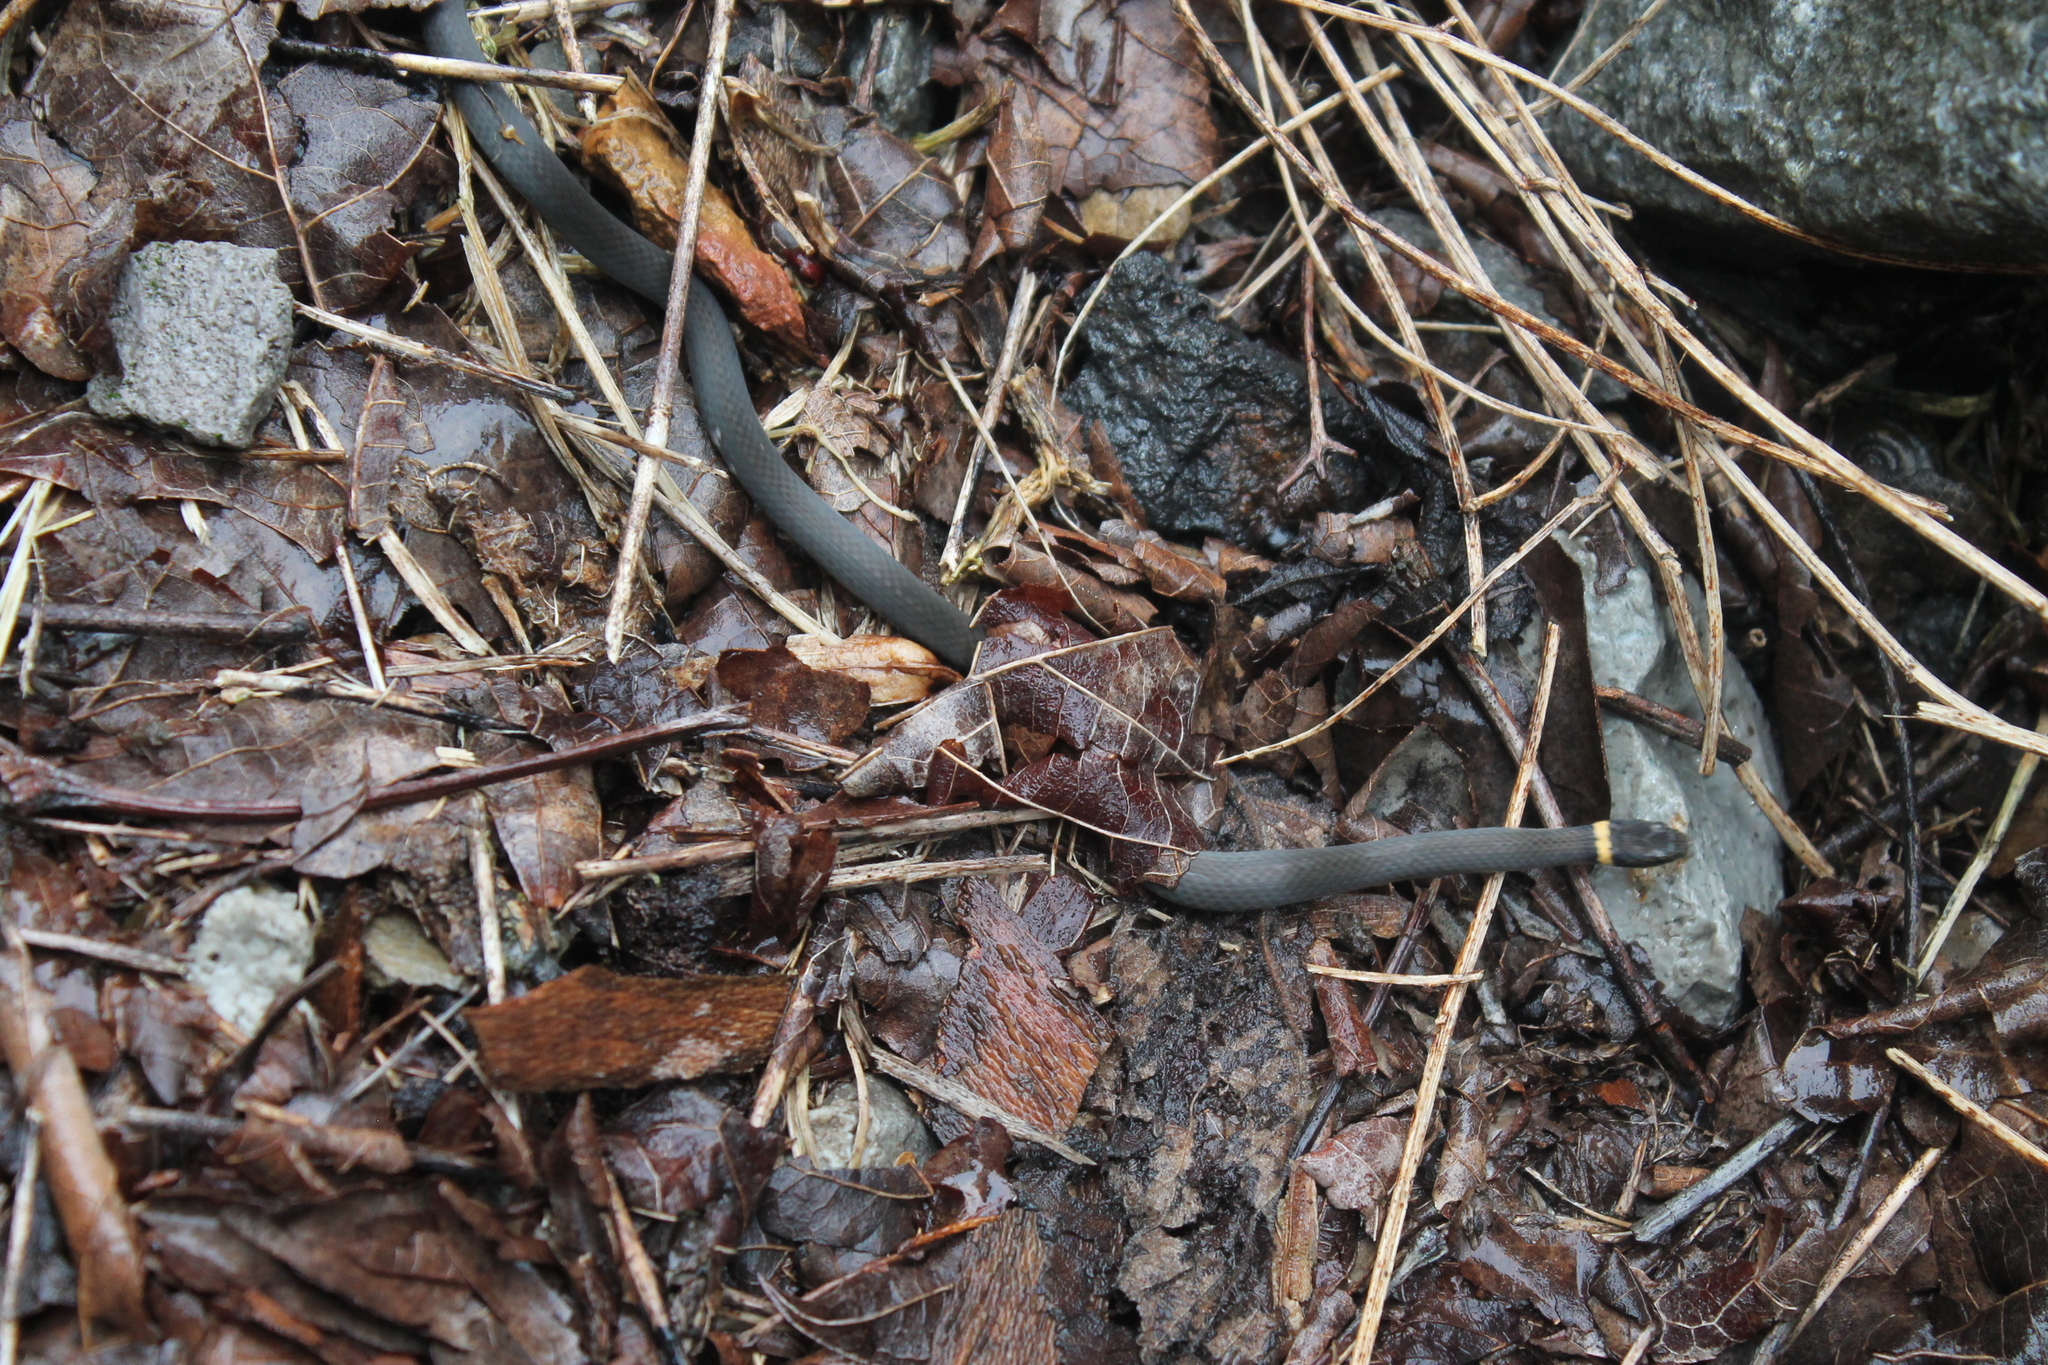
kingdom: Animalia
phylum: Chordata
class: Squamata
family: Colubridae
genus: Diadophis
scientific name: Diadophis punctatus
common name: Ringneck snake
